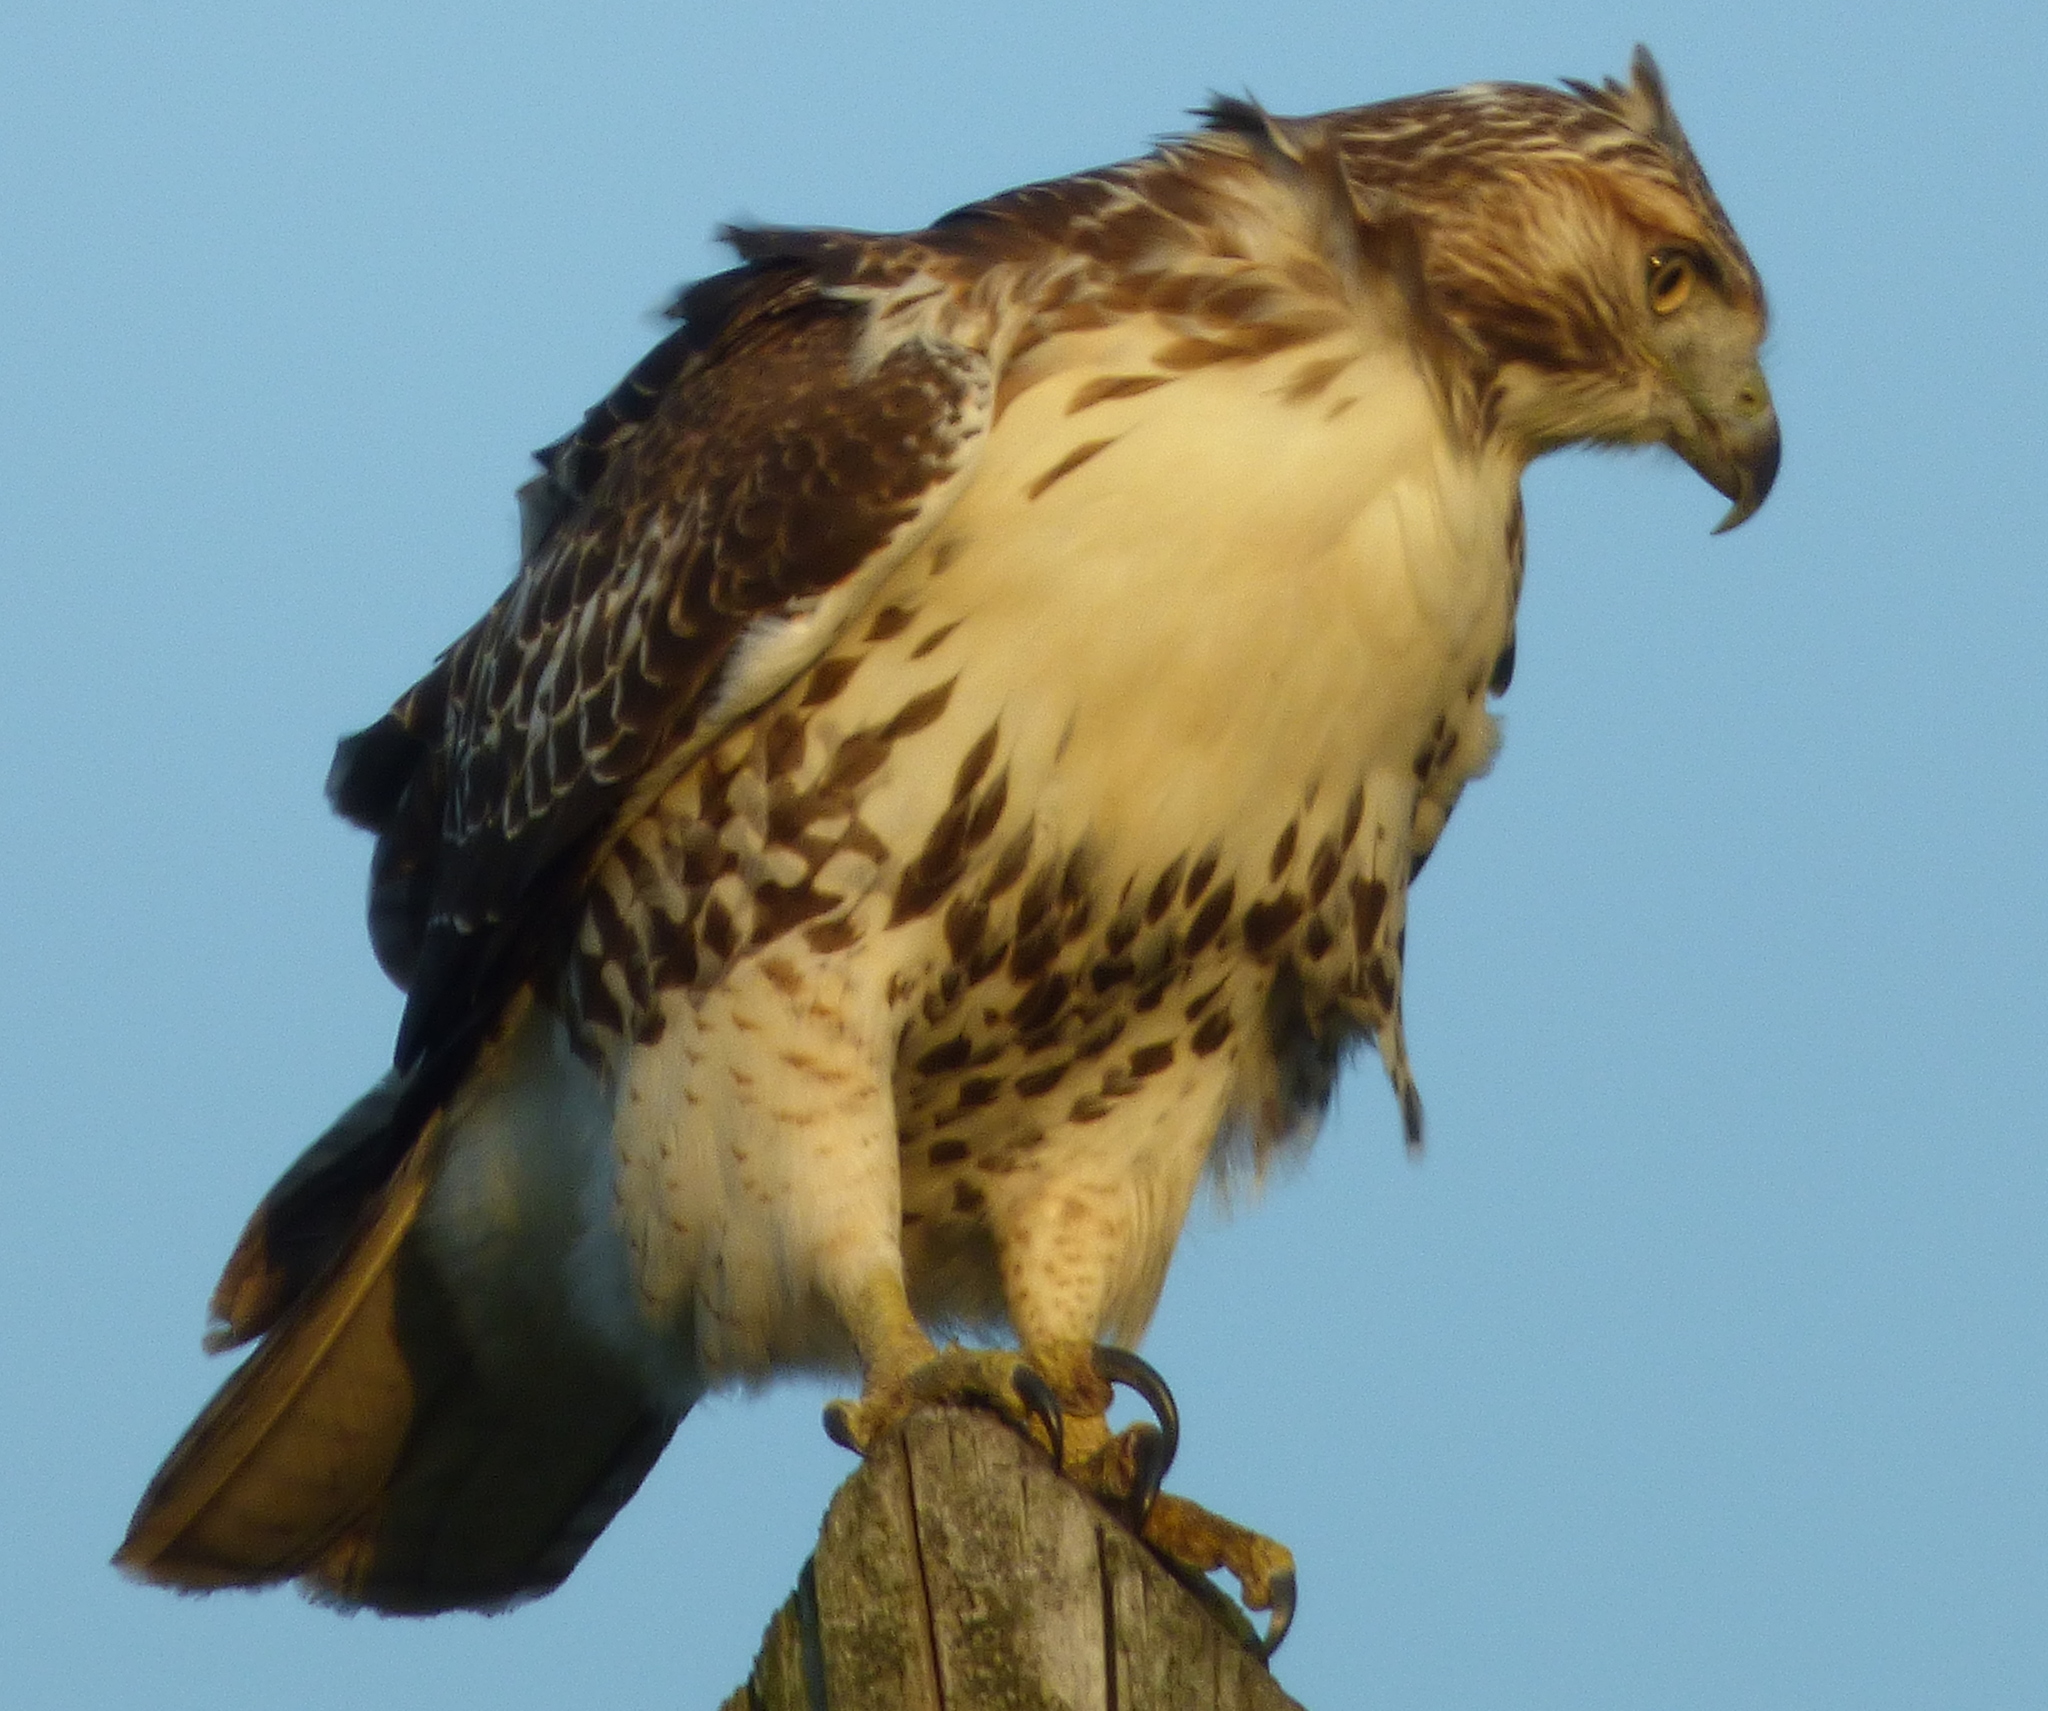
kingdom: Animalia
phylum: Chordata
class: Aves
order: Accipitriformes
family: Accipitridae
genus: Buteo
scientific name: Buteo jamaicensis
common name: Red-tailed hawk
